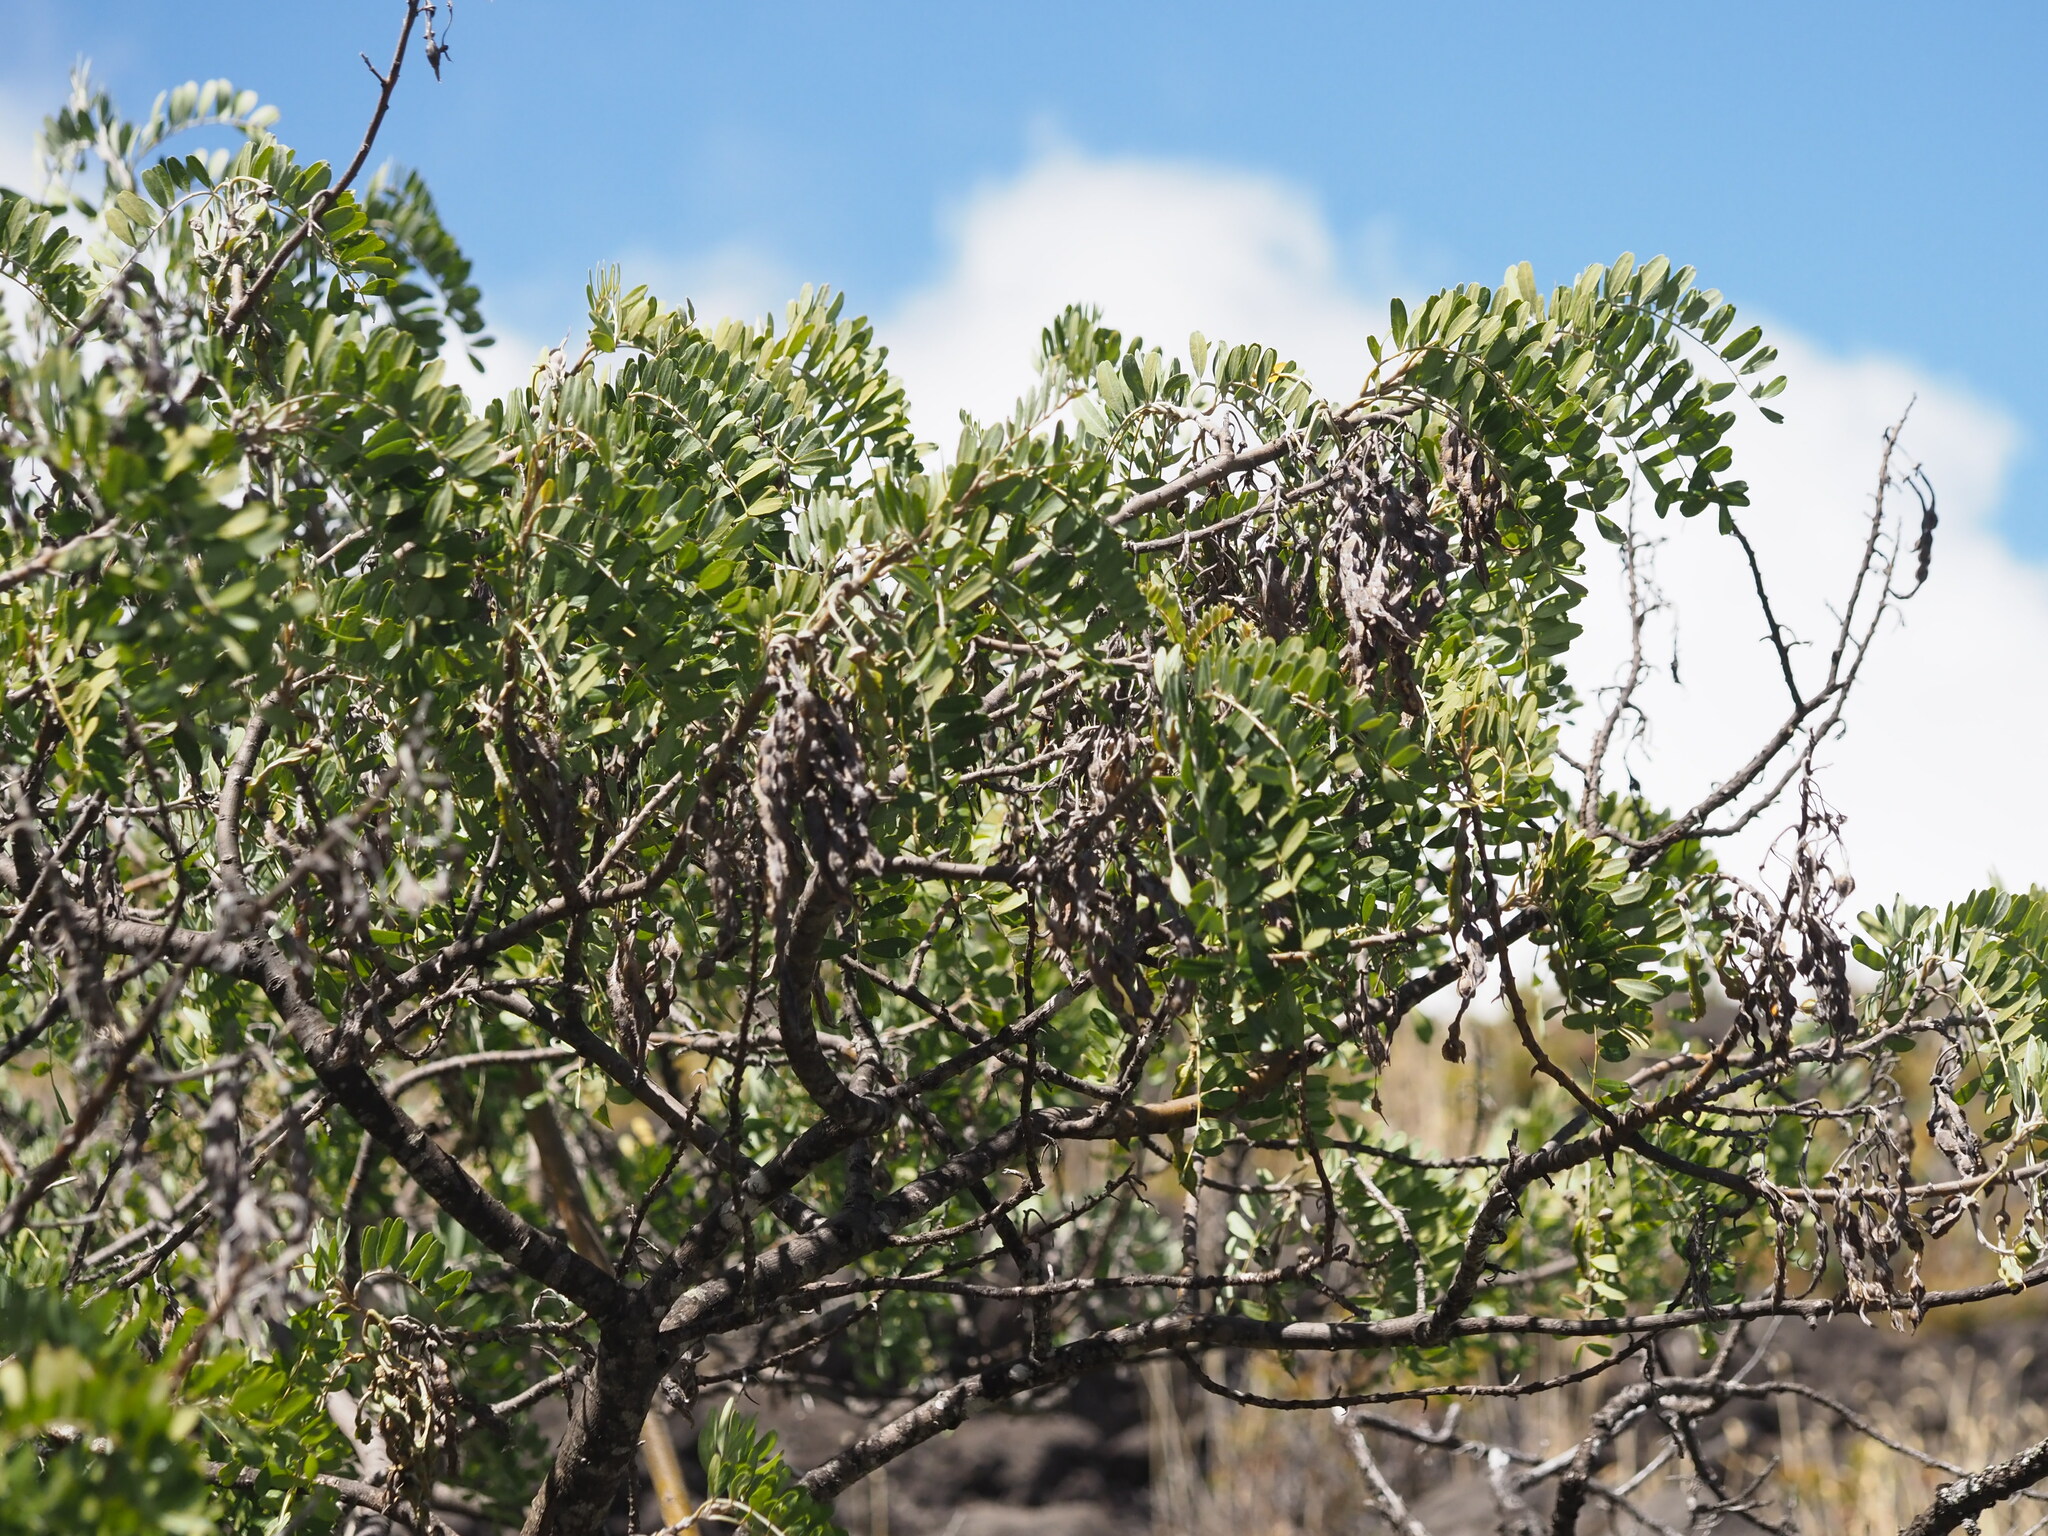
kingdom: Plantae
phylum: Tracheophyta
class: Magnoliopsida
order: Fabales
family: Fabaceae
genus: Sophora
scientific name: Sophora chrysophylla
